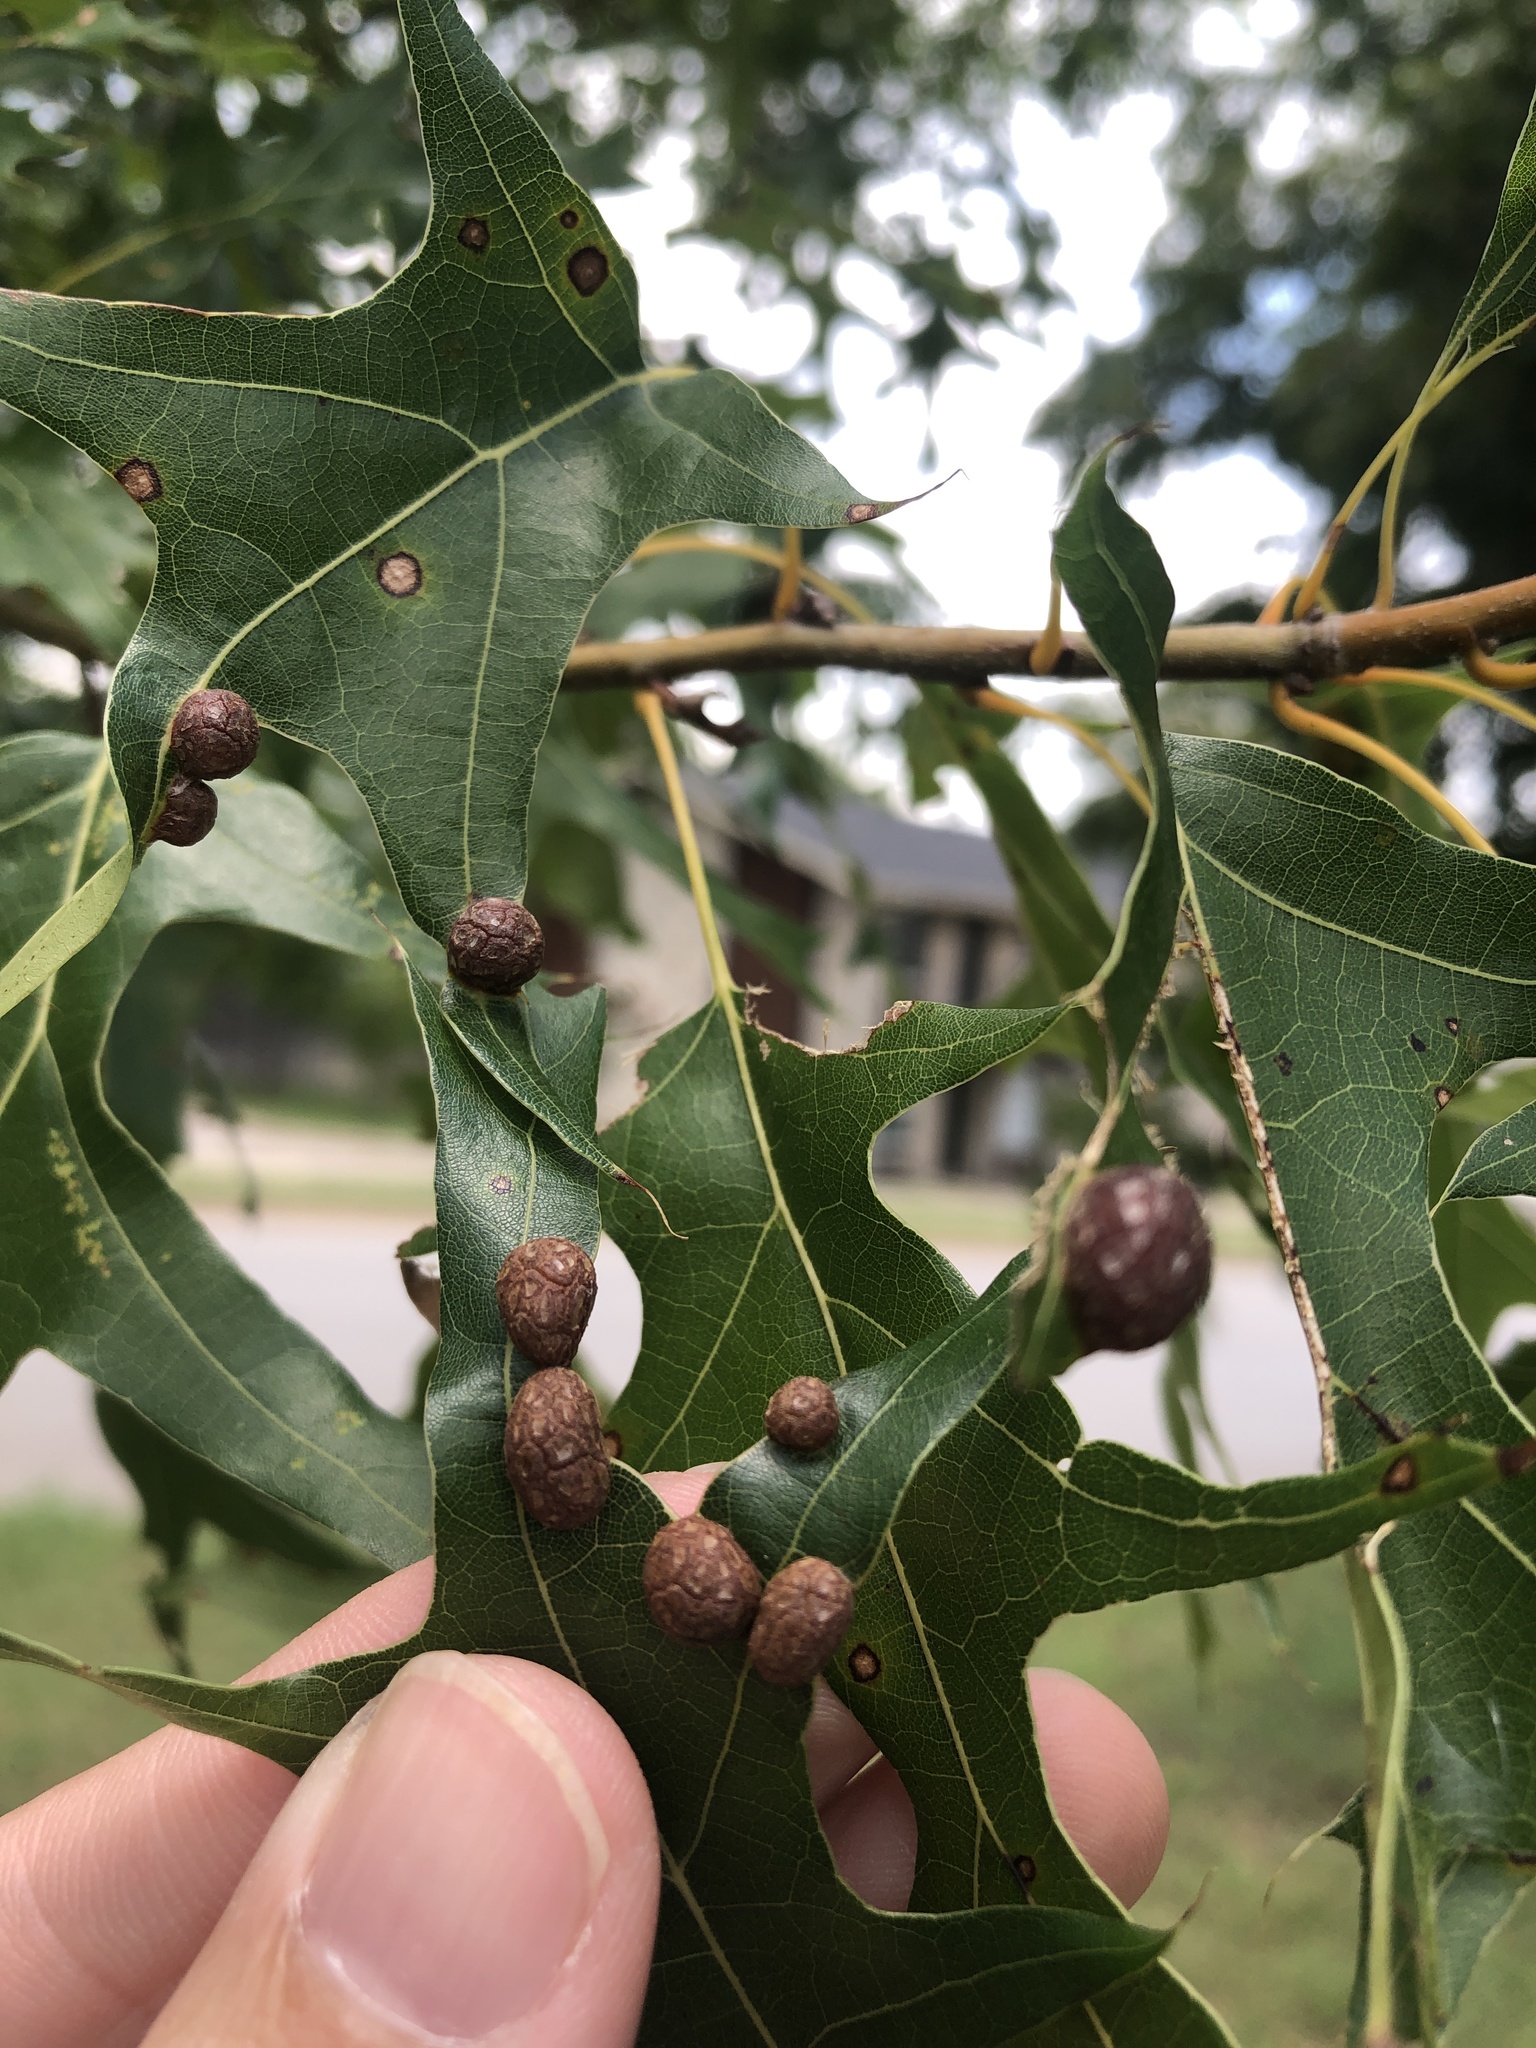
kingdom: Animalia
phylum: Arthropoda
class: Insecta
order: Diptera
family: Cecidomyiidae
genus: Polystepha
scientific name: Polystepha pilulae
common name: Oak leaf gall midge
